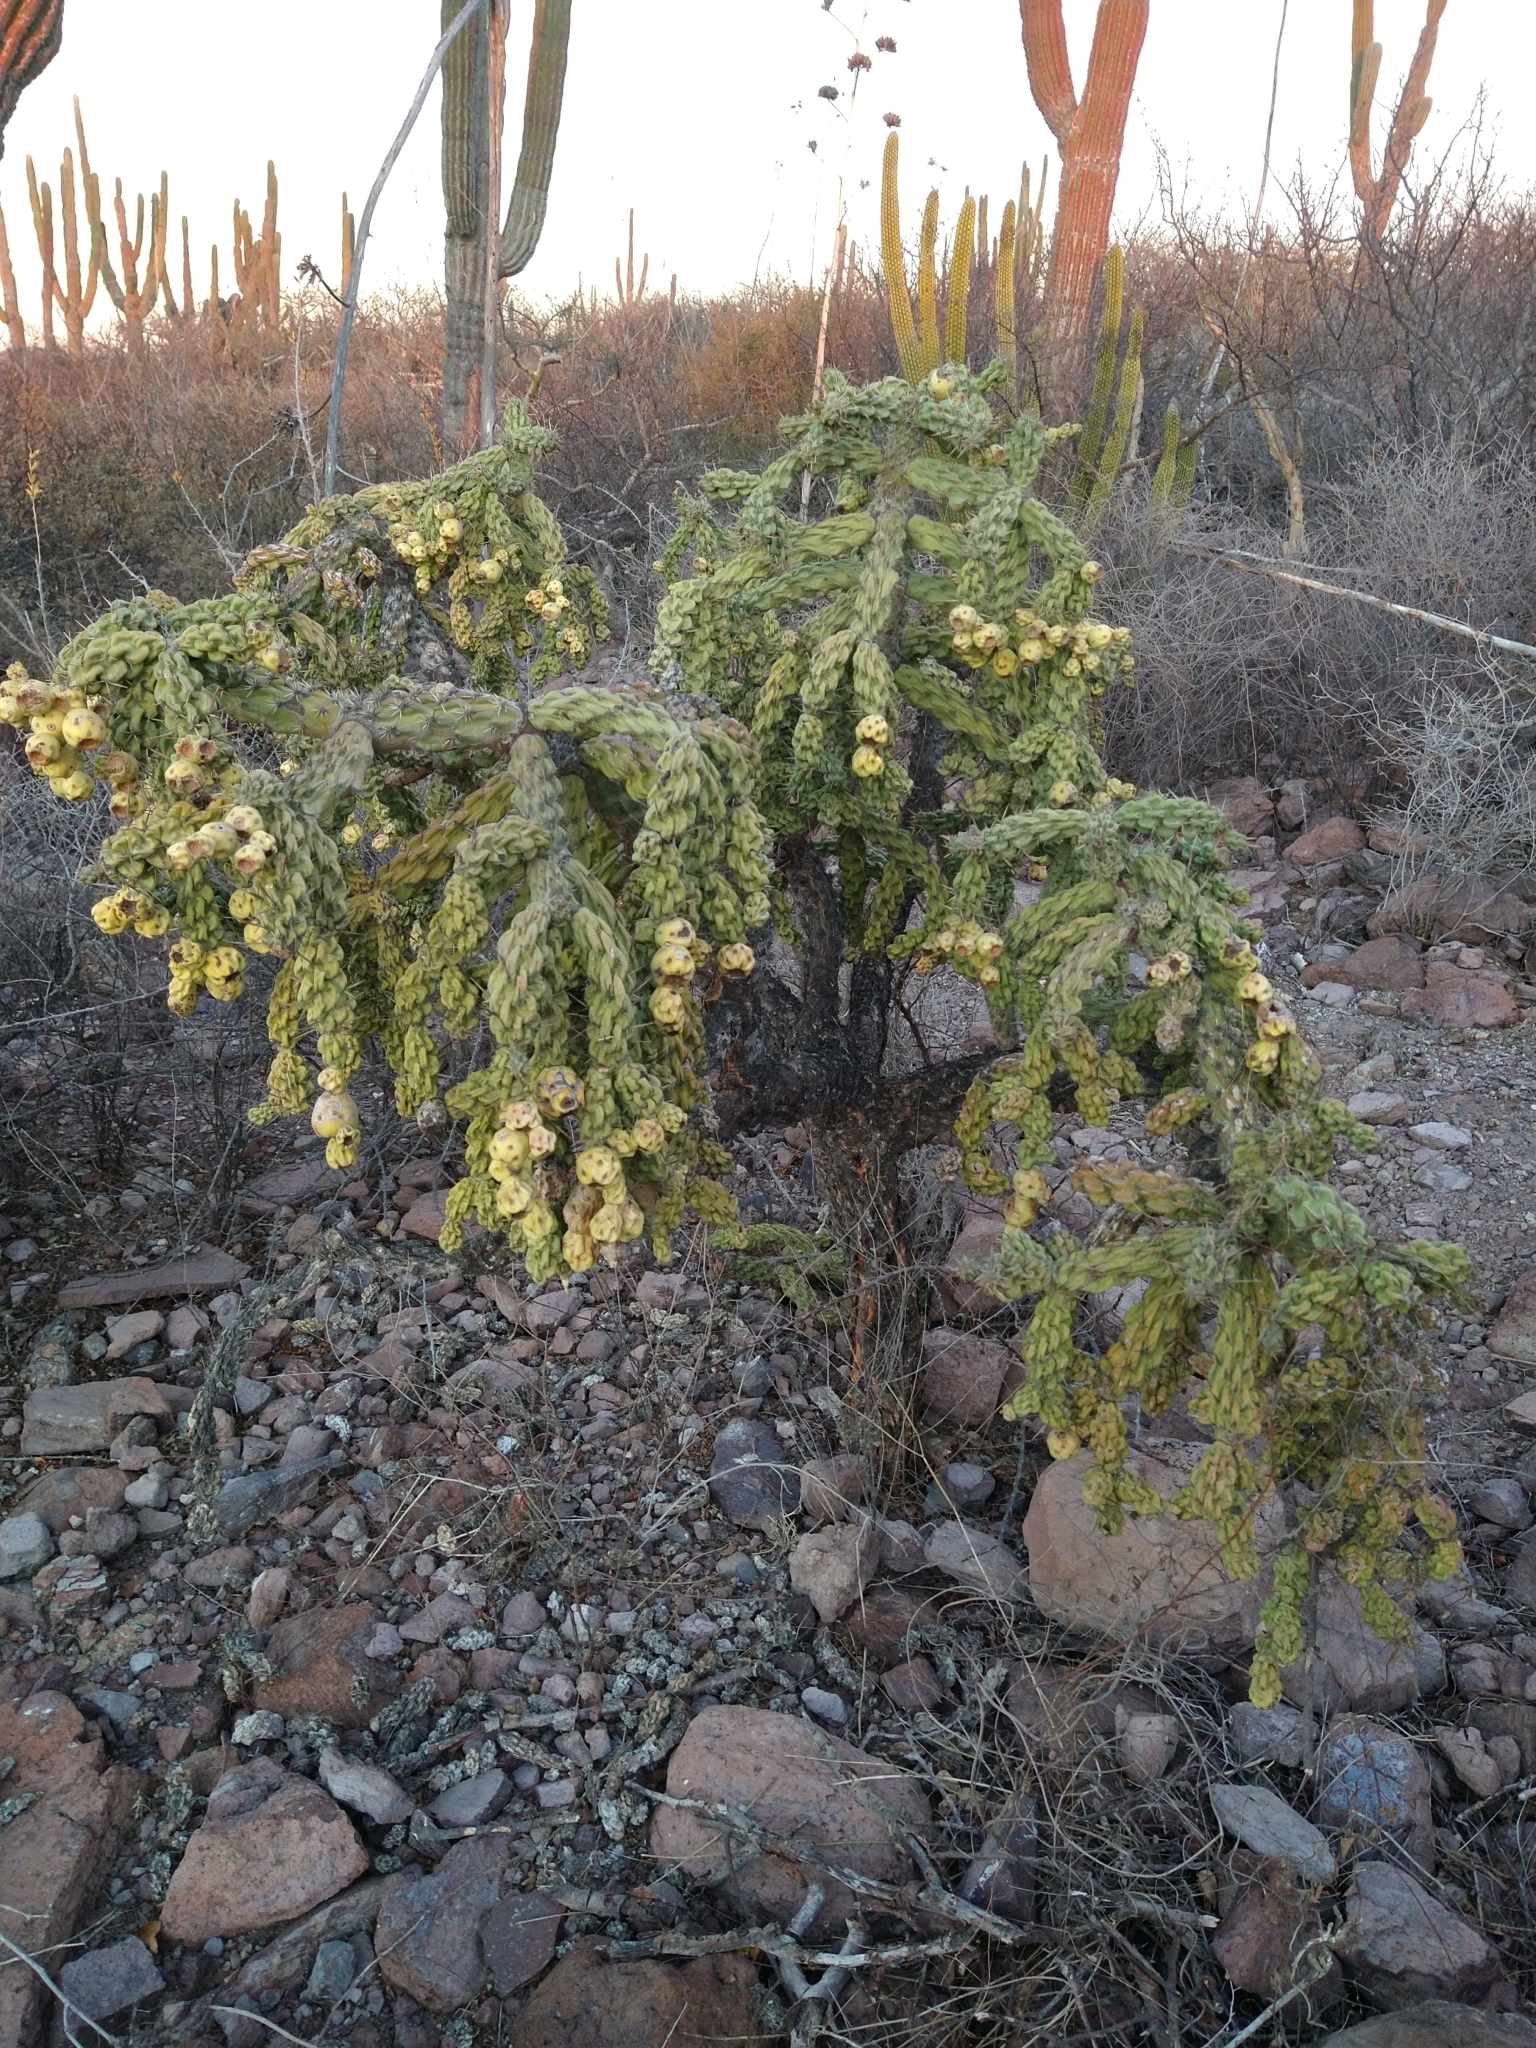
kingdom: Plantae
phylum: Tracheophyta
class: Magnoliopsida
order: Caryophyllales
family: Cactaceae
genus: Cylindropuntia
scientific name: Cylindropuntia cholla
